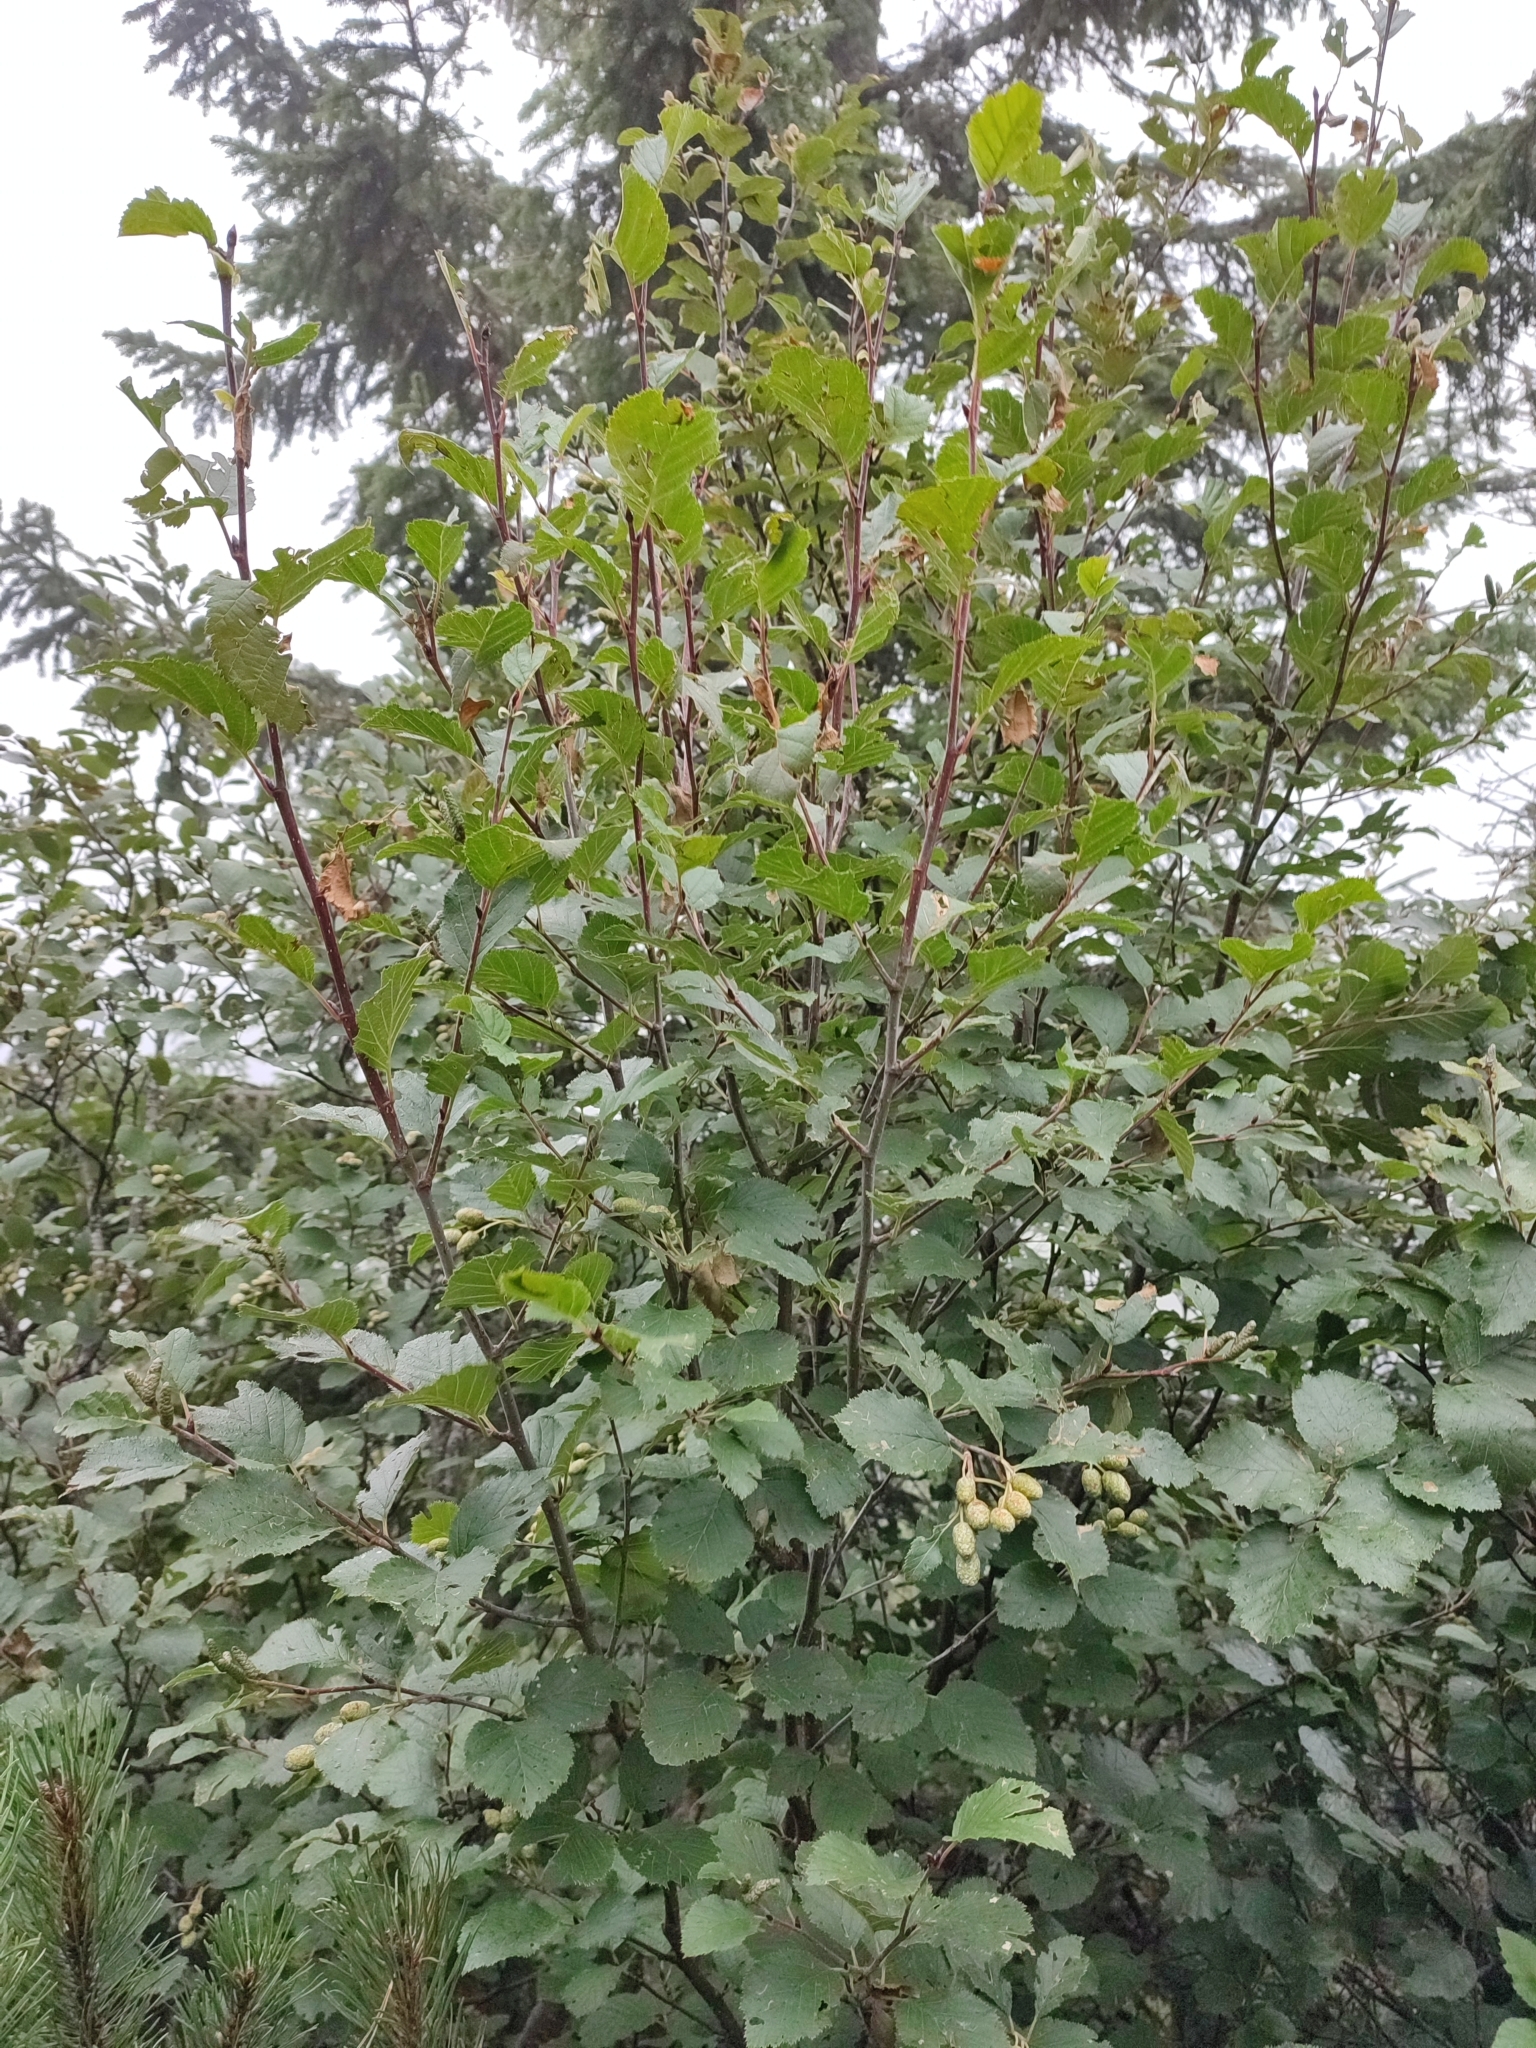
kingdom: Plantae
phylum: Tracheophyta
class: Magnoliopsida
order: Fagales
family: Betulaceae
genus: Alnus
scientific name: Alnus alnobetula
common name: Green alder
